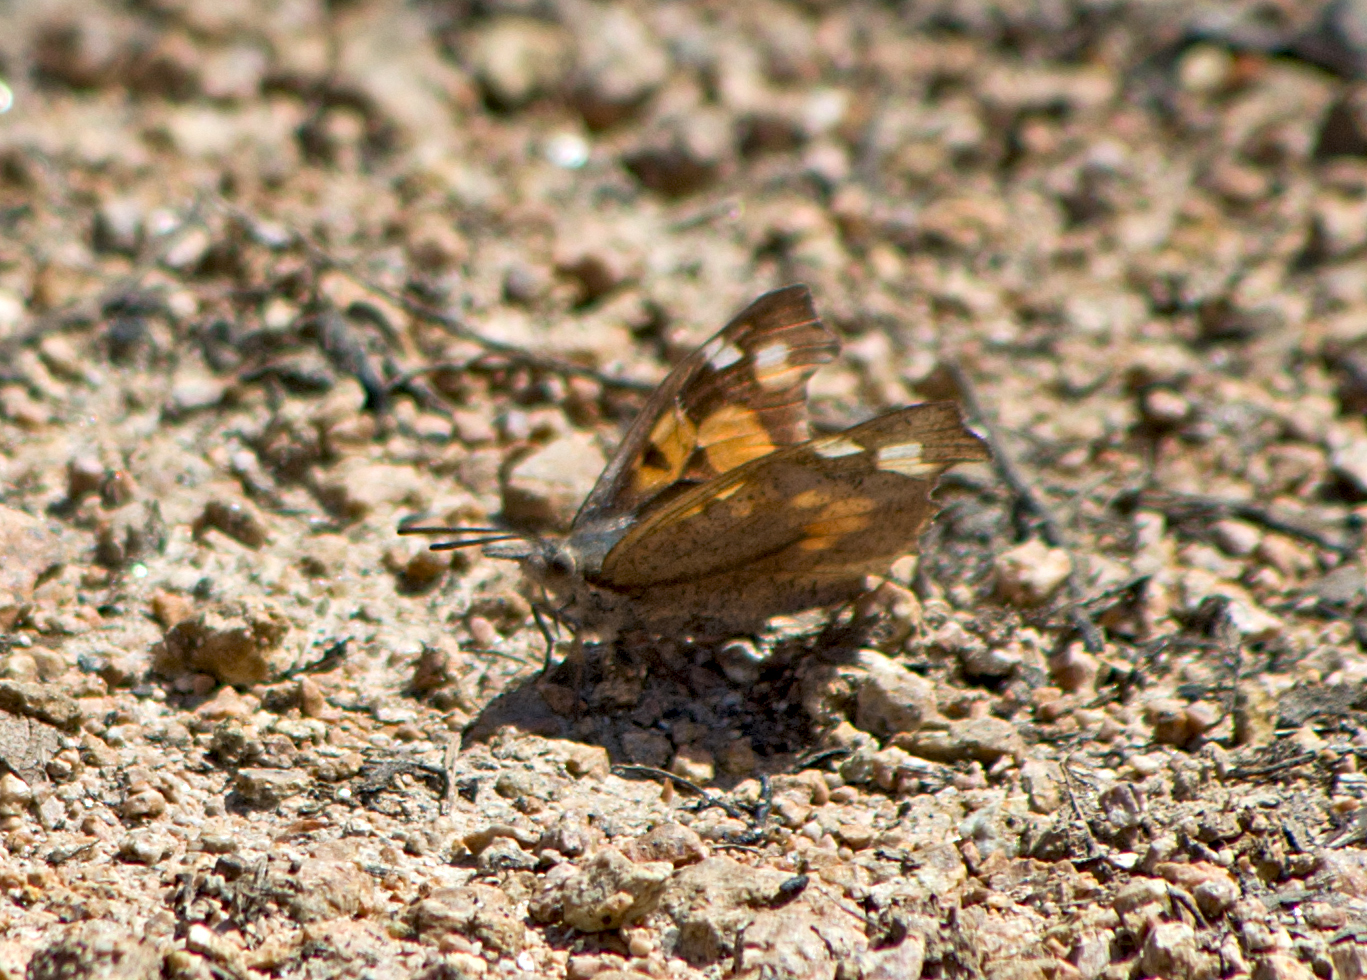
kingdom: Animalia
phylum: Arthropoda
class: Insecta
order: Lepidoptera
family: Nymphalidae
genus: Libythea
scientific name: Libythea celtis
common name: Nettle-tree butterfly
